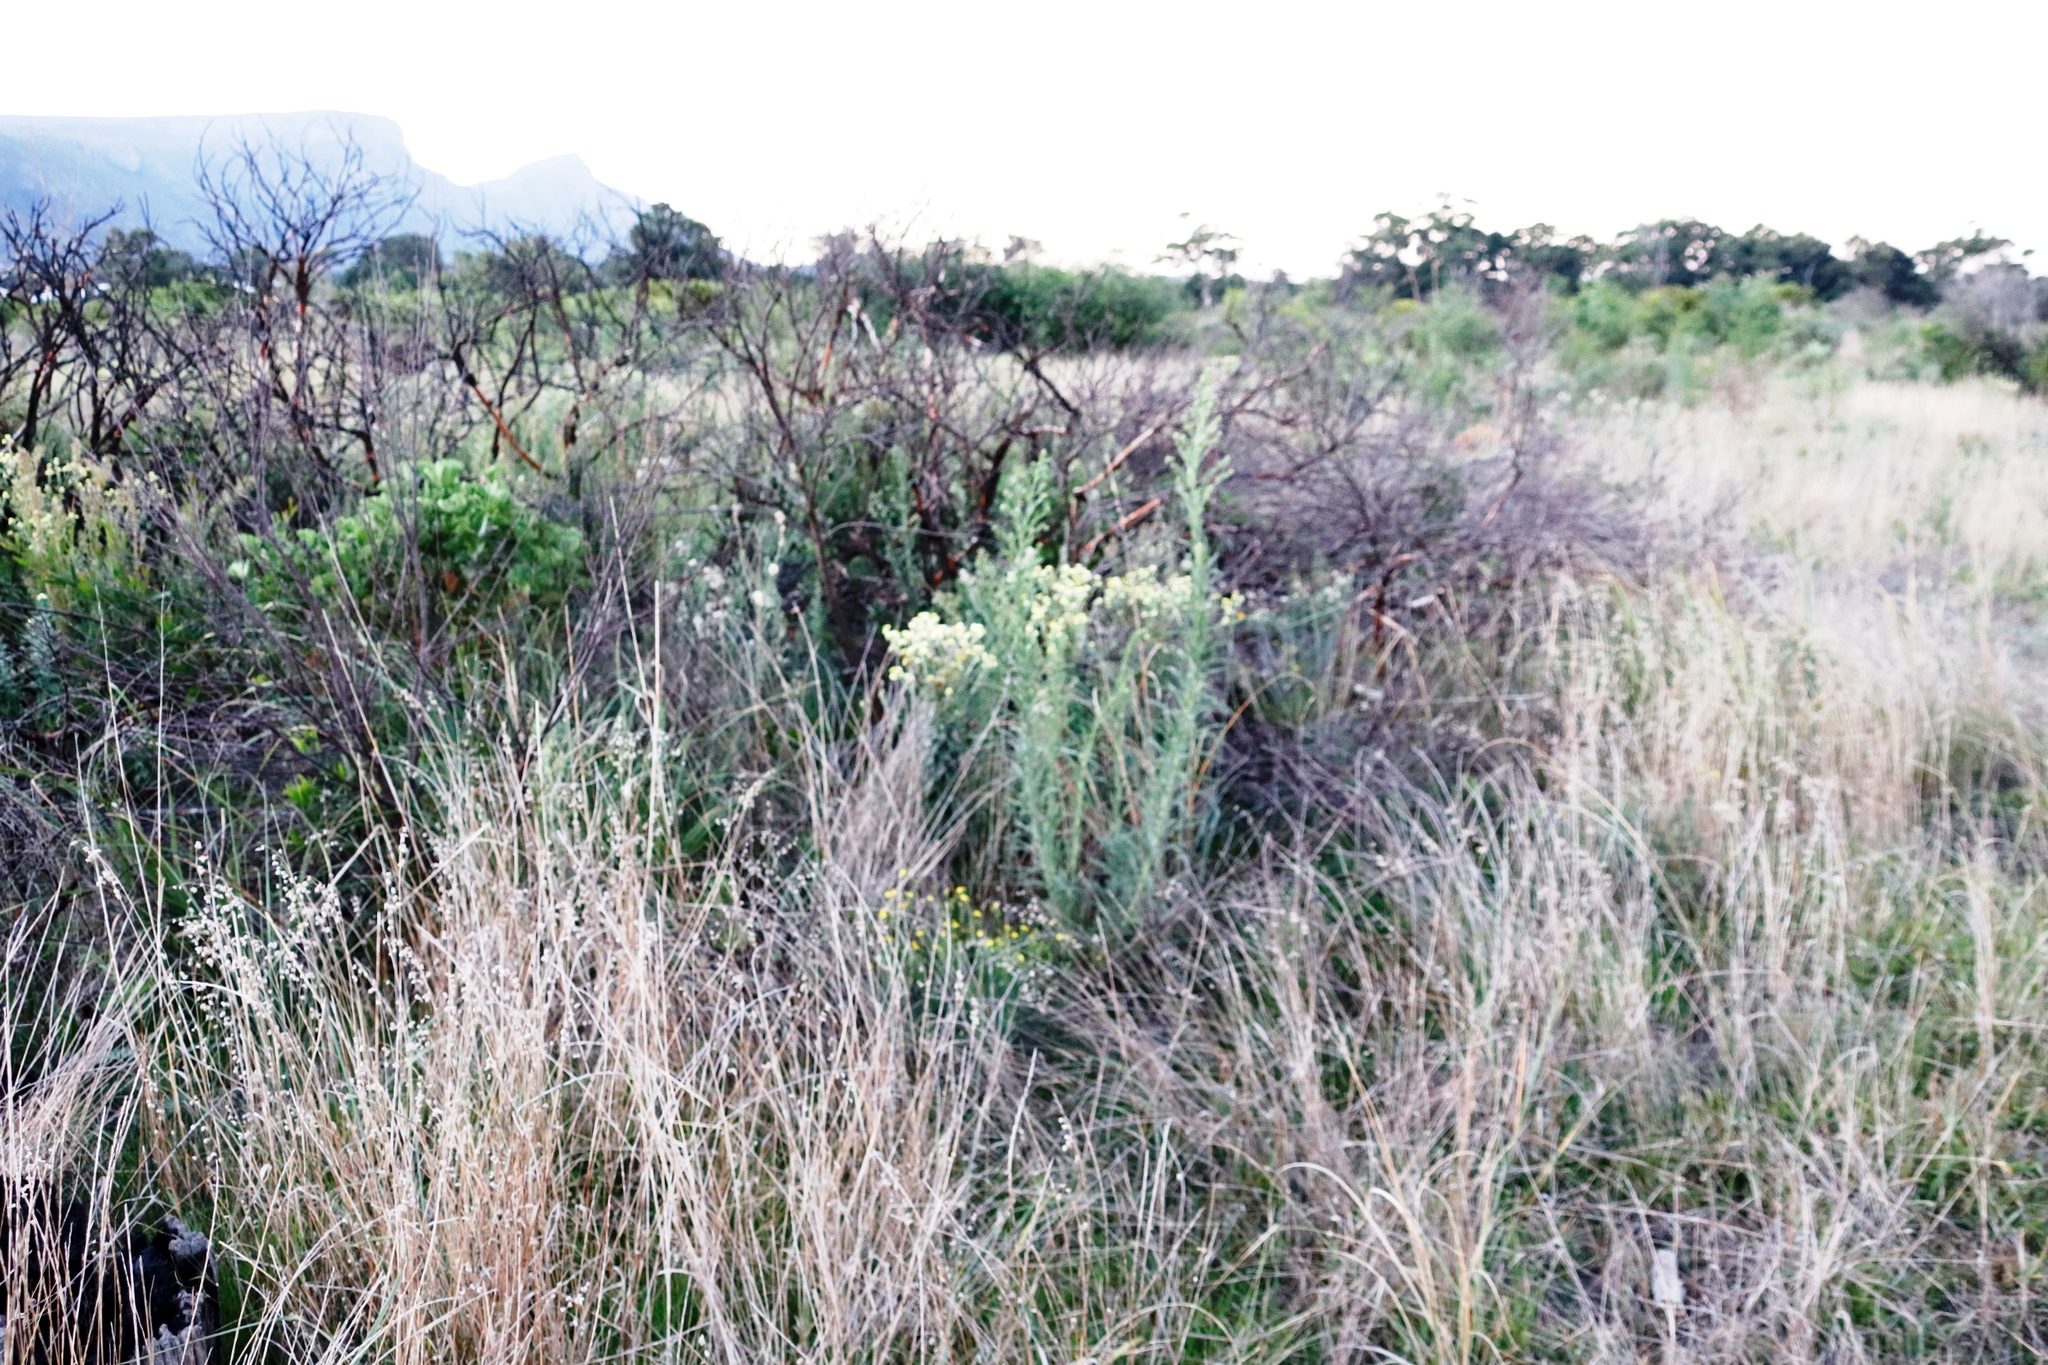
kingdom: Plantae
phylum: Tracheophyta
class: Magnoliopsida
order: Asterales
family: Asteraceae
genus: Helichrysum
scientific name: Helichrysum foetidum
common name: Stinking everlasting
